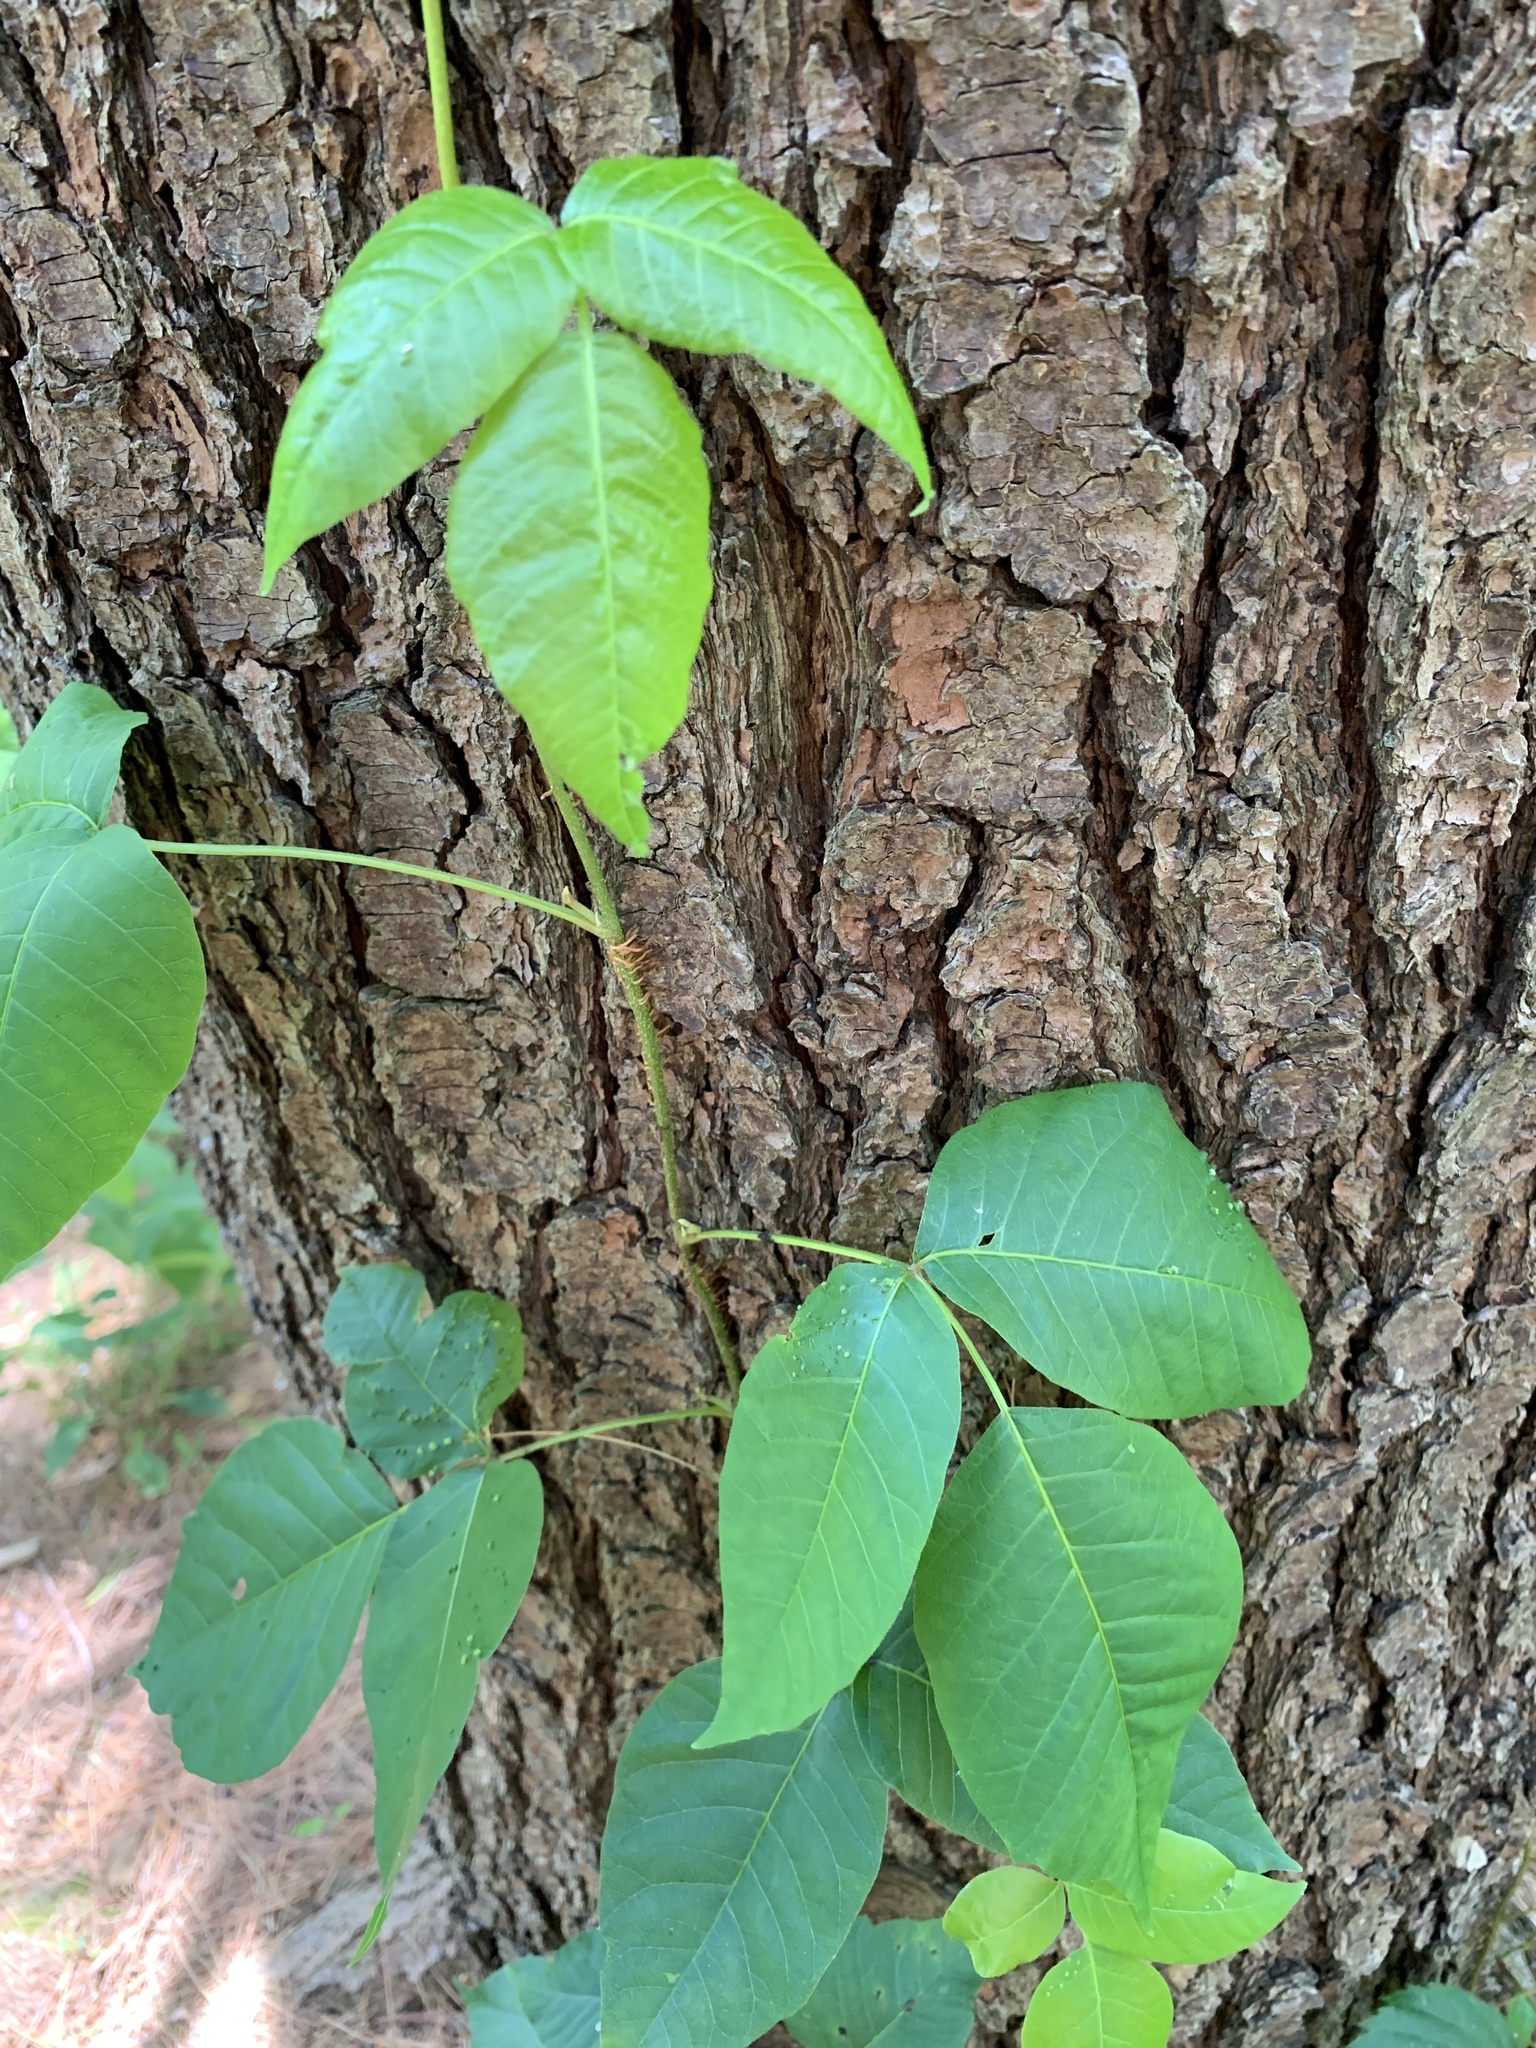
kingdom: Plantae
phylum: Tracheophyta
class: Magnoliopsida
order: Sapindales
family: Anacardiaceae
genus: Toxicodendron
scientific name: Toxicodendron radicans
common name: Poison ivy
